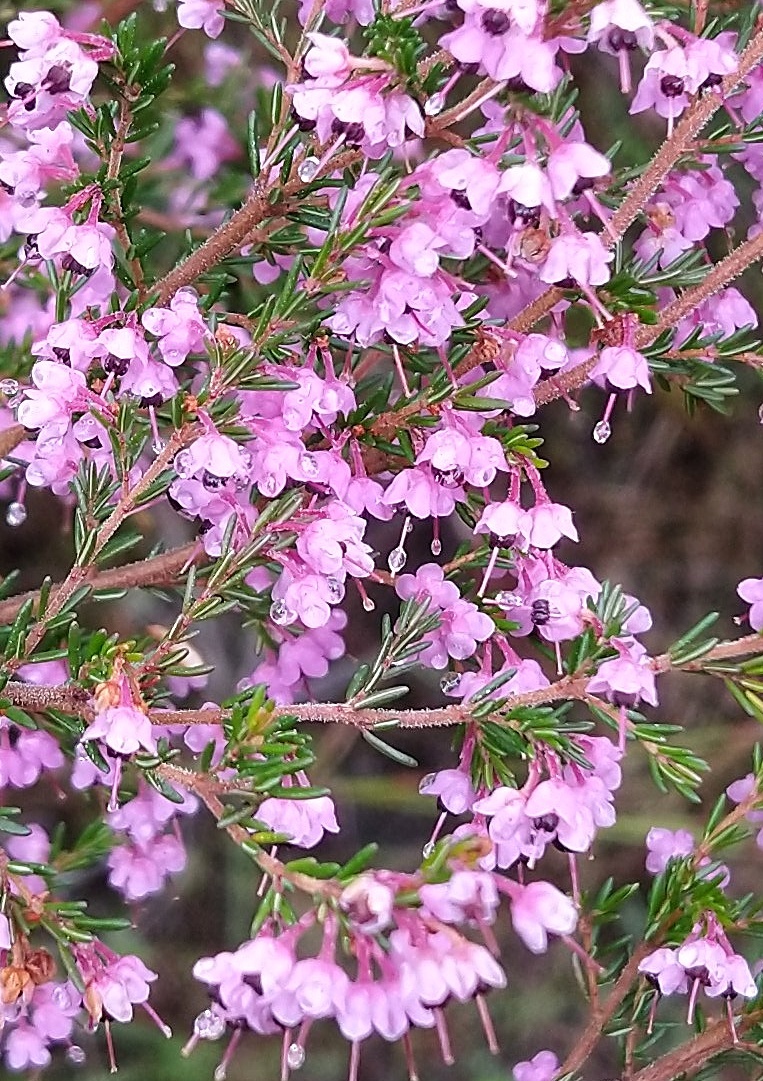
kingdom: Plantae
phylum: Tracheophyta
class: Magnoliopsida
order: Ericales
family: Ericaceae
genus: Erica
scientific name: Erica canaliculata
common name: Hairy grey heather
